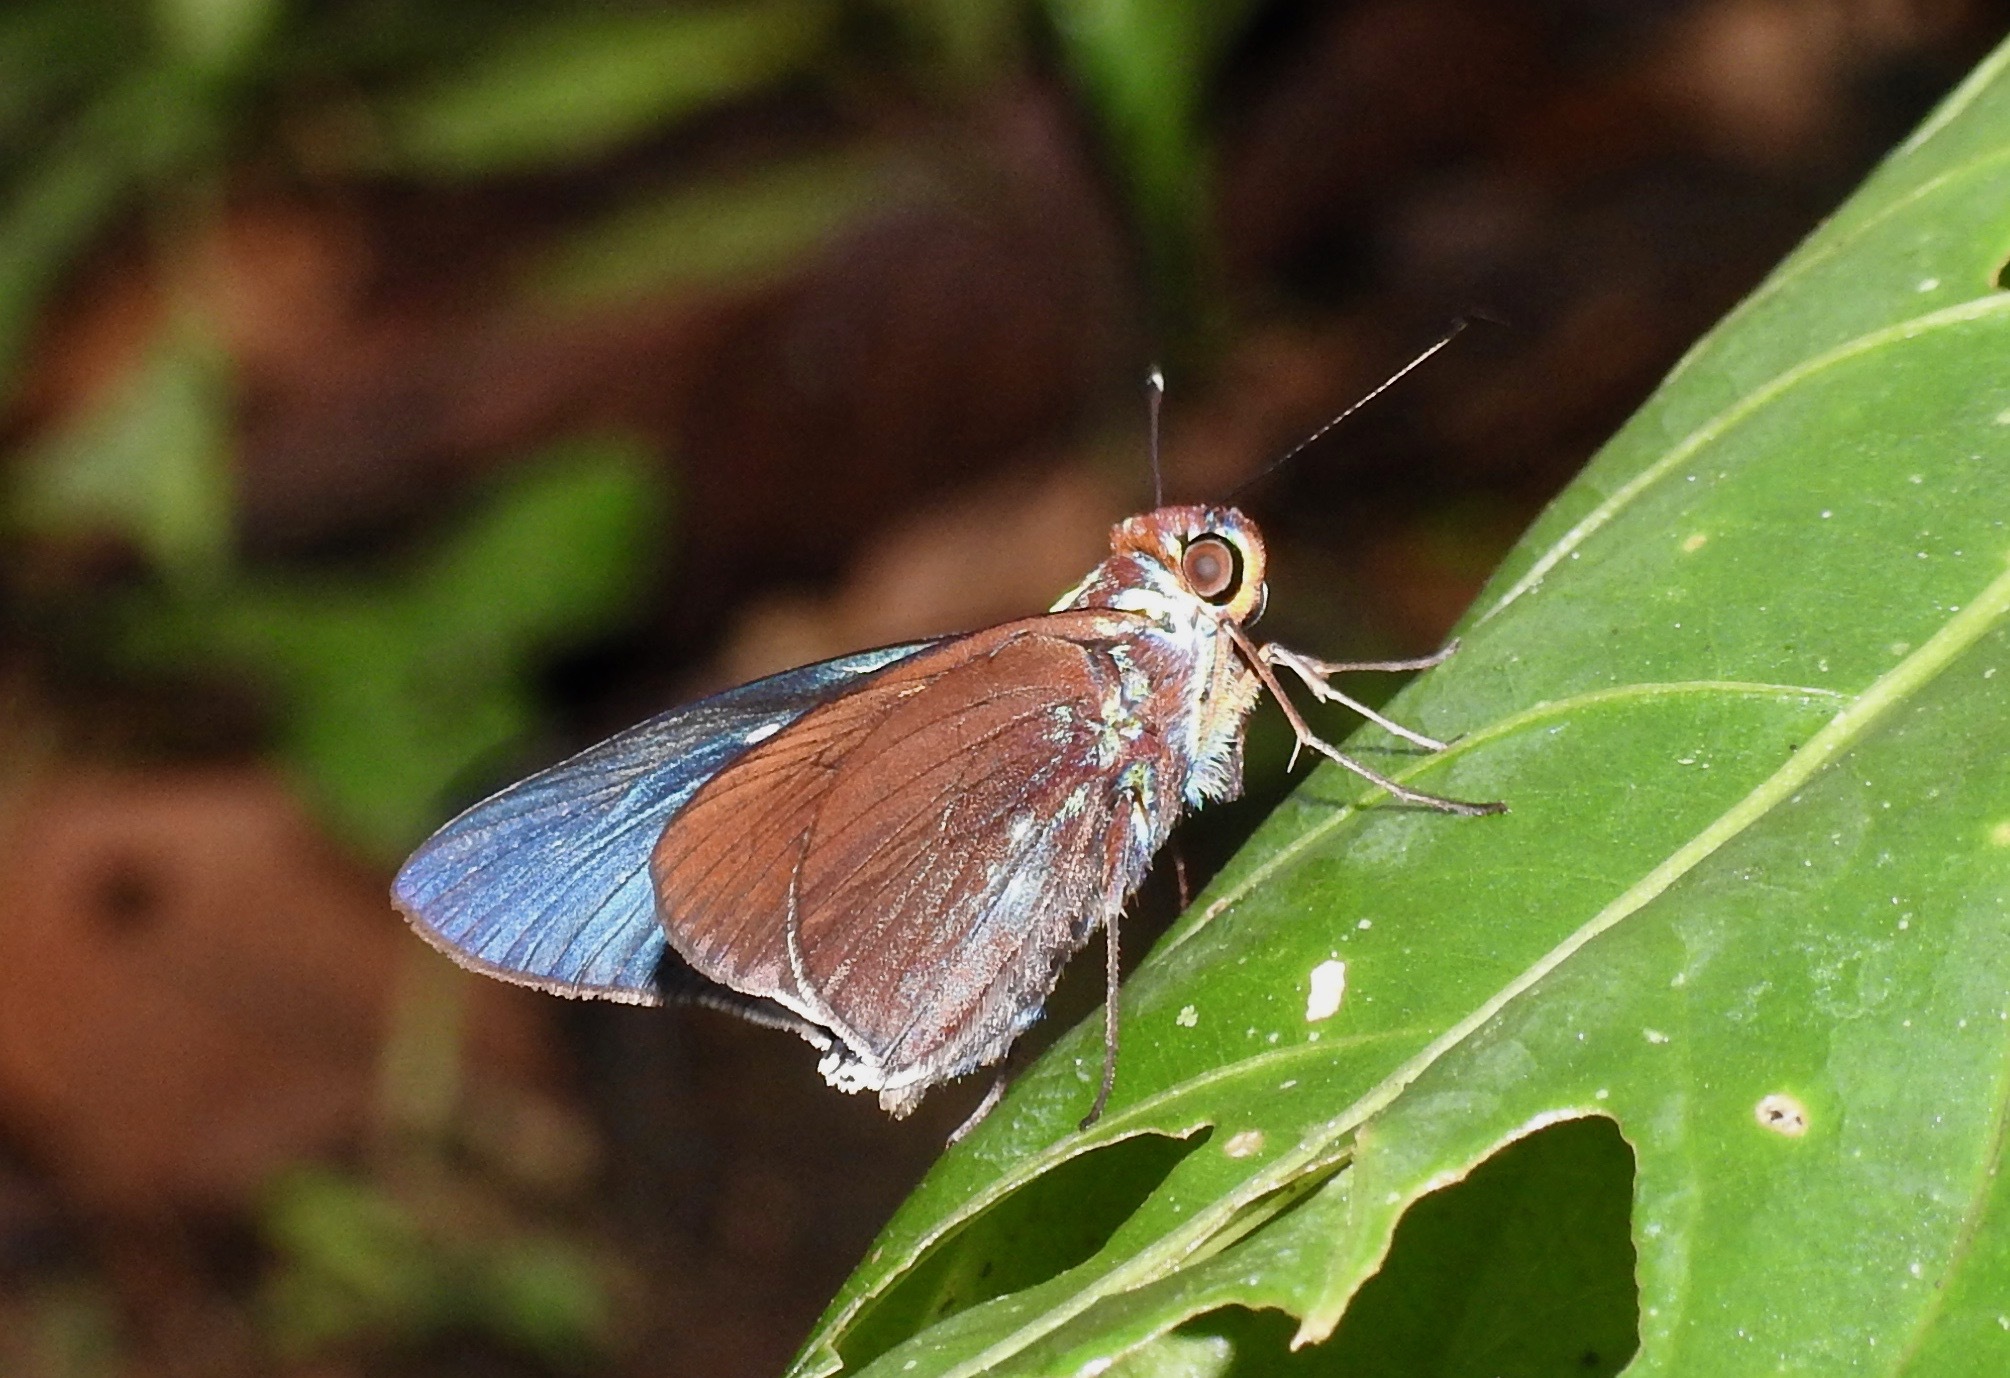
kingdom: Animalia
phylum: Arthropoda
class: Insecta
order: Lepidoptera
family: Hesperiidae
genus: Thracides
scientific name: Thracides nanea
